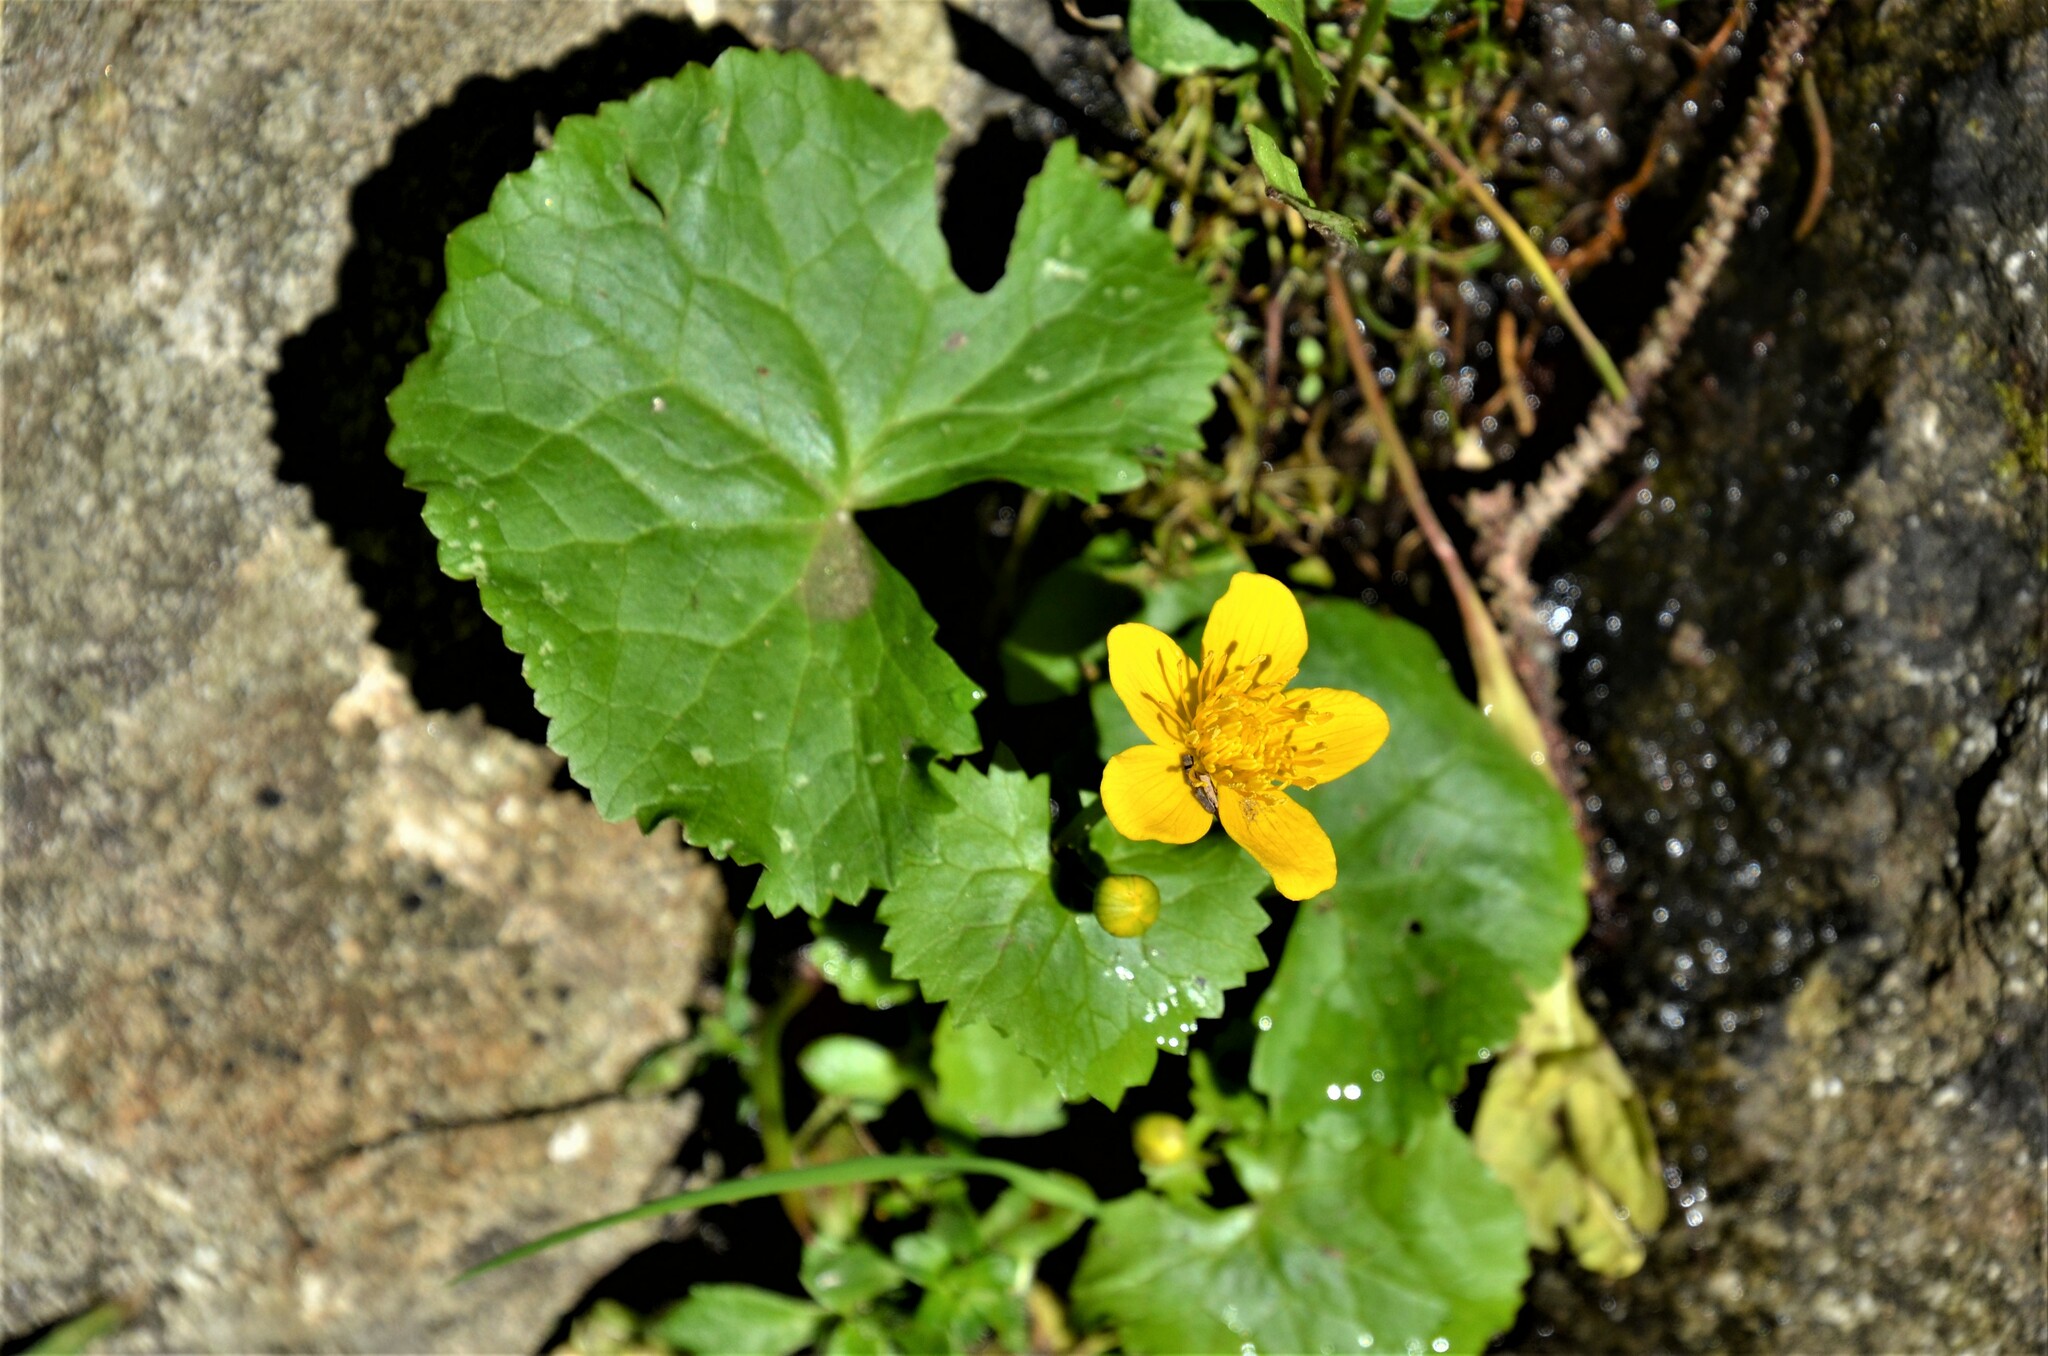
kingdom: Plantae
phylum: Tracheophyta
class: Magnoliopsida
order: Ranunculales
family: Ranunculaceae
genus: Caltha
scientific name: Caltha palustris
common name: Marsh marigold
